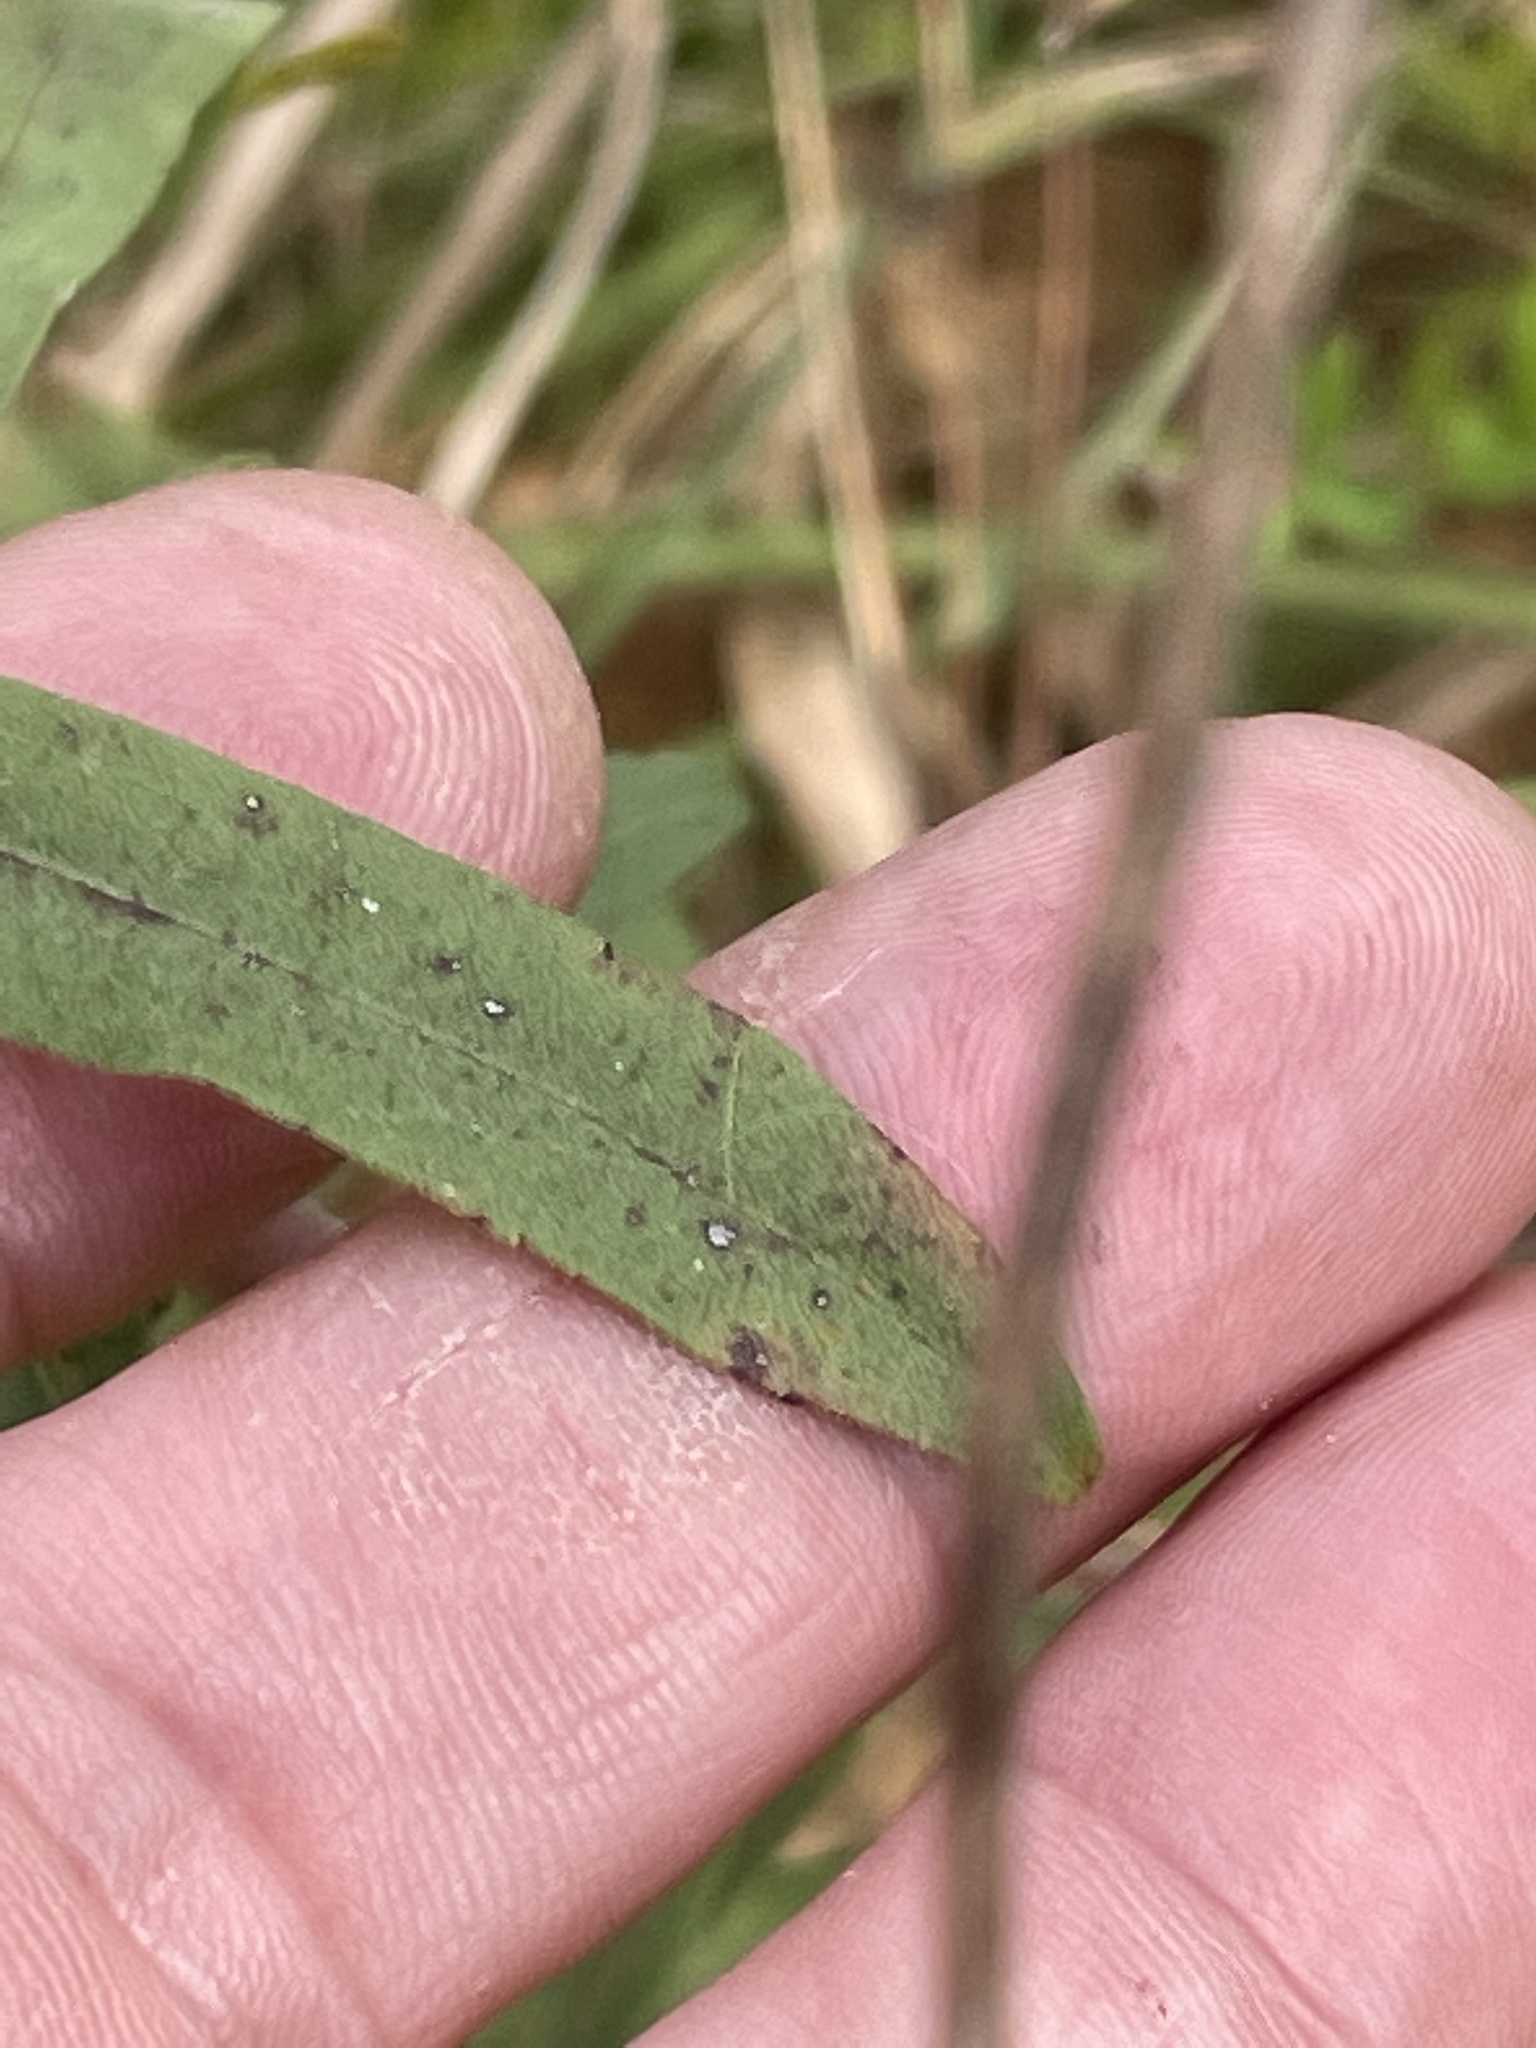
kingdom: Plantae
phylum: Tracheophyta
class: Magnoliopsida
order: Asterales
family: Asteraceae
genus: Solidago
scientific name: Solidago nemoralis
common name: Grey goldenrod
